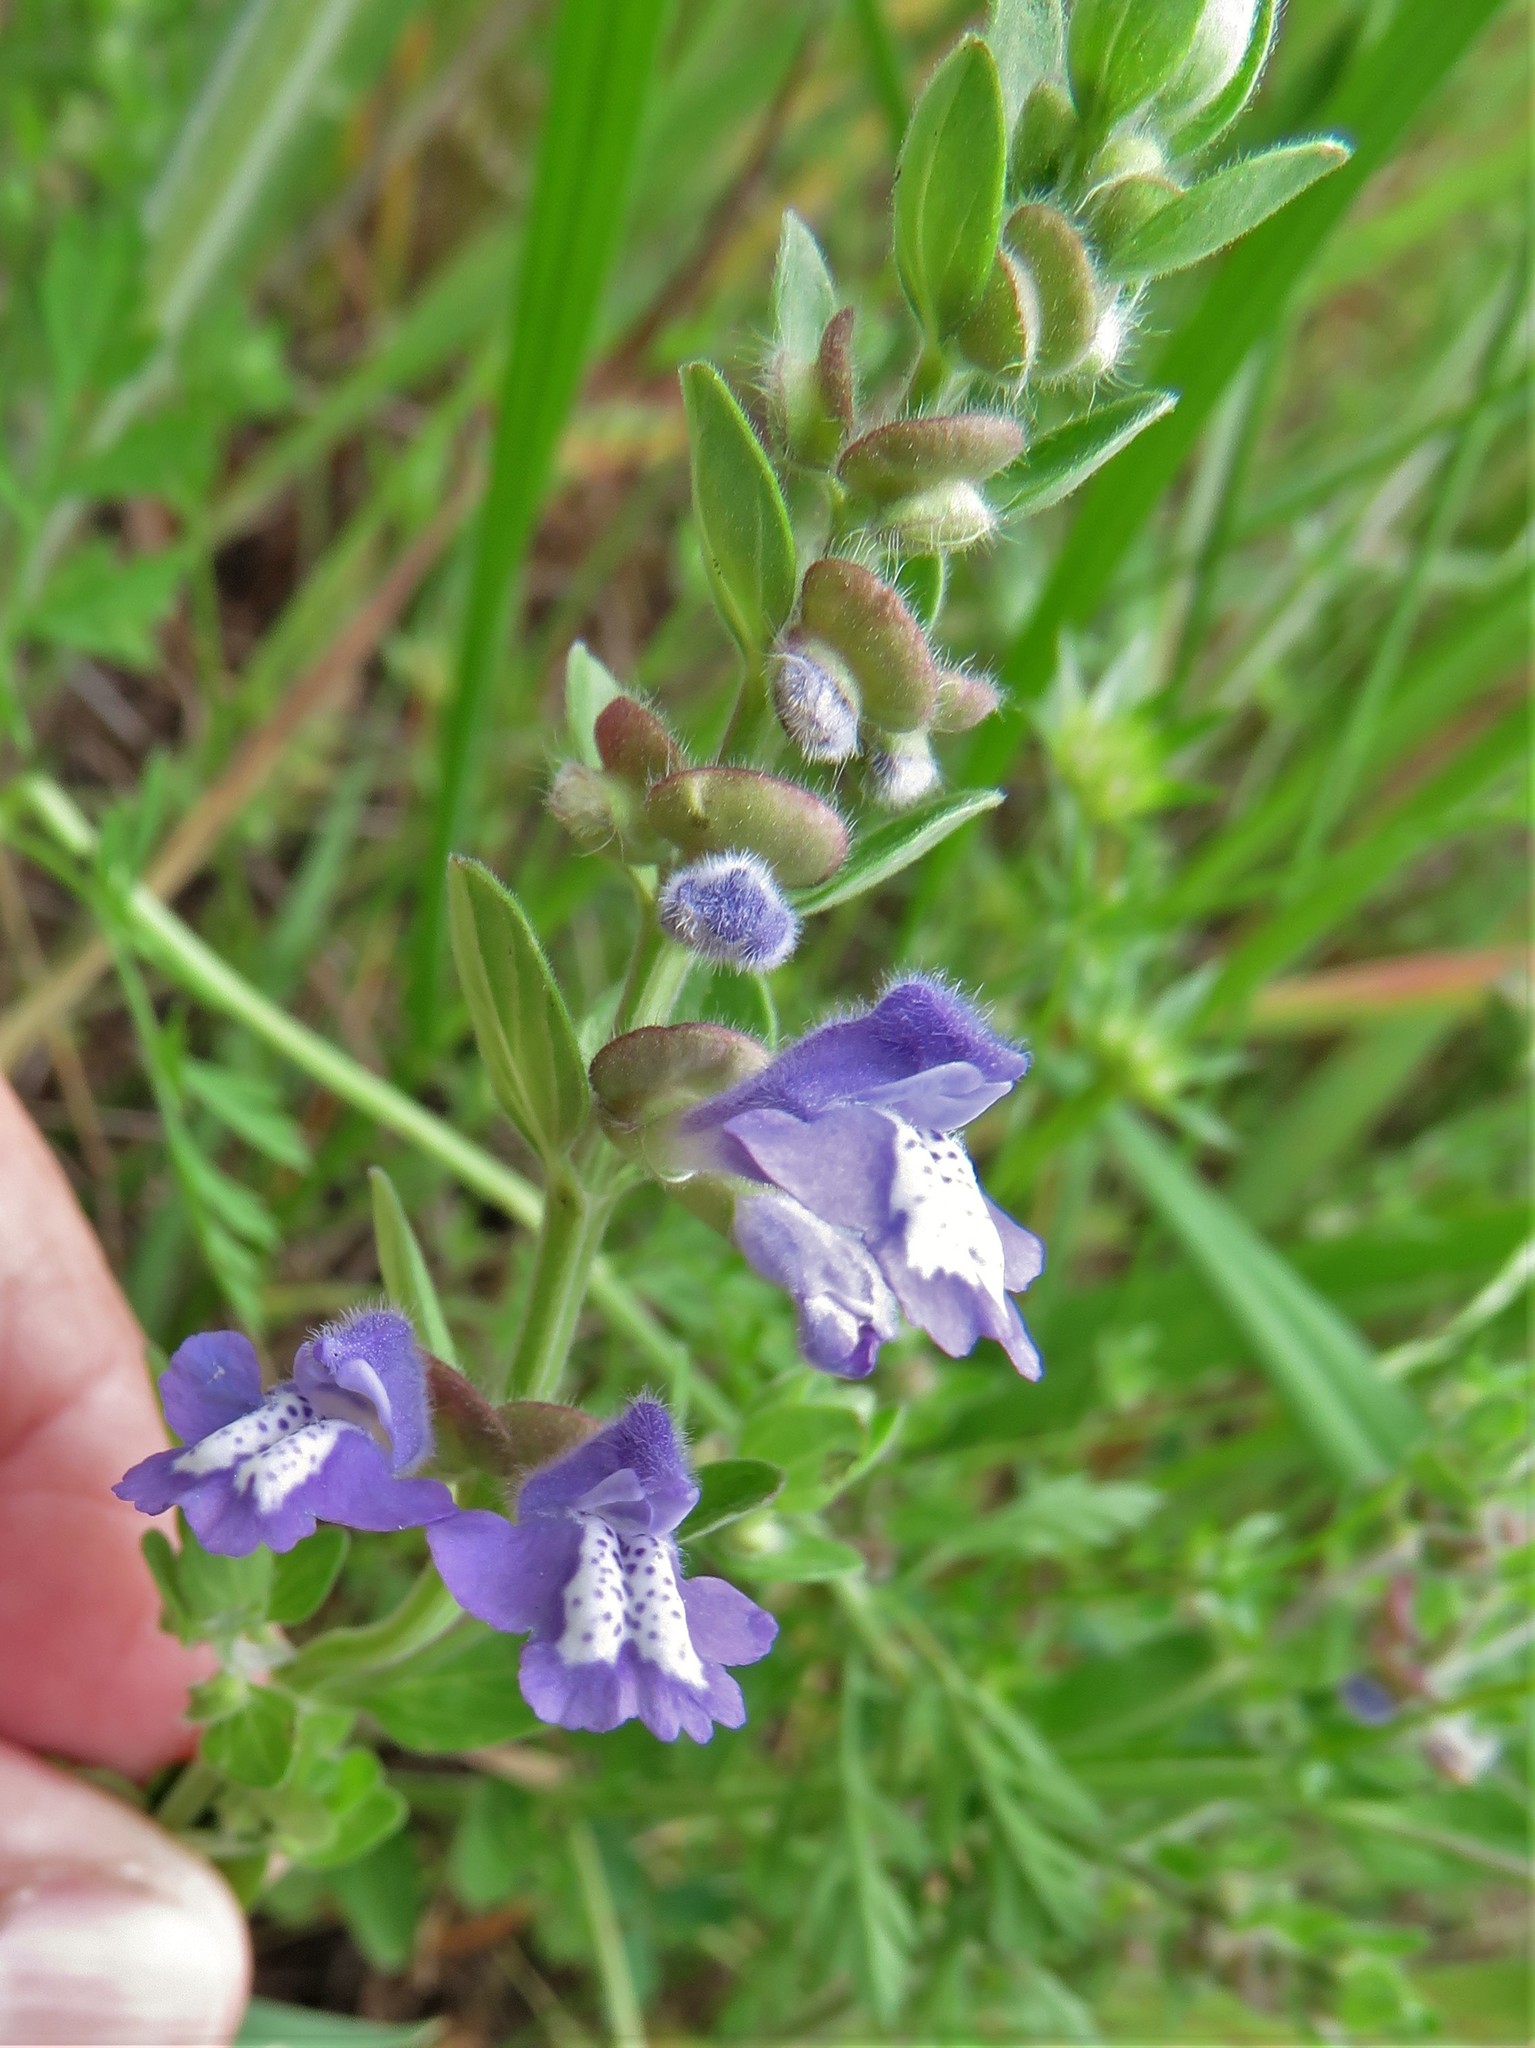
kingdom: Plantae
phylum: Tracheophyta
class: Magnoliopsida
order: Lamiales
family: Lamiaceae
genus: Scutellaria
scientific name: Scutellaria drummondii
